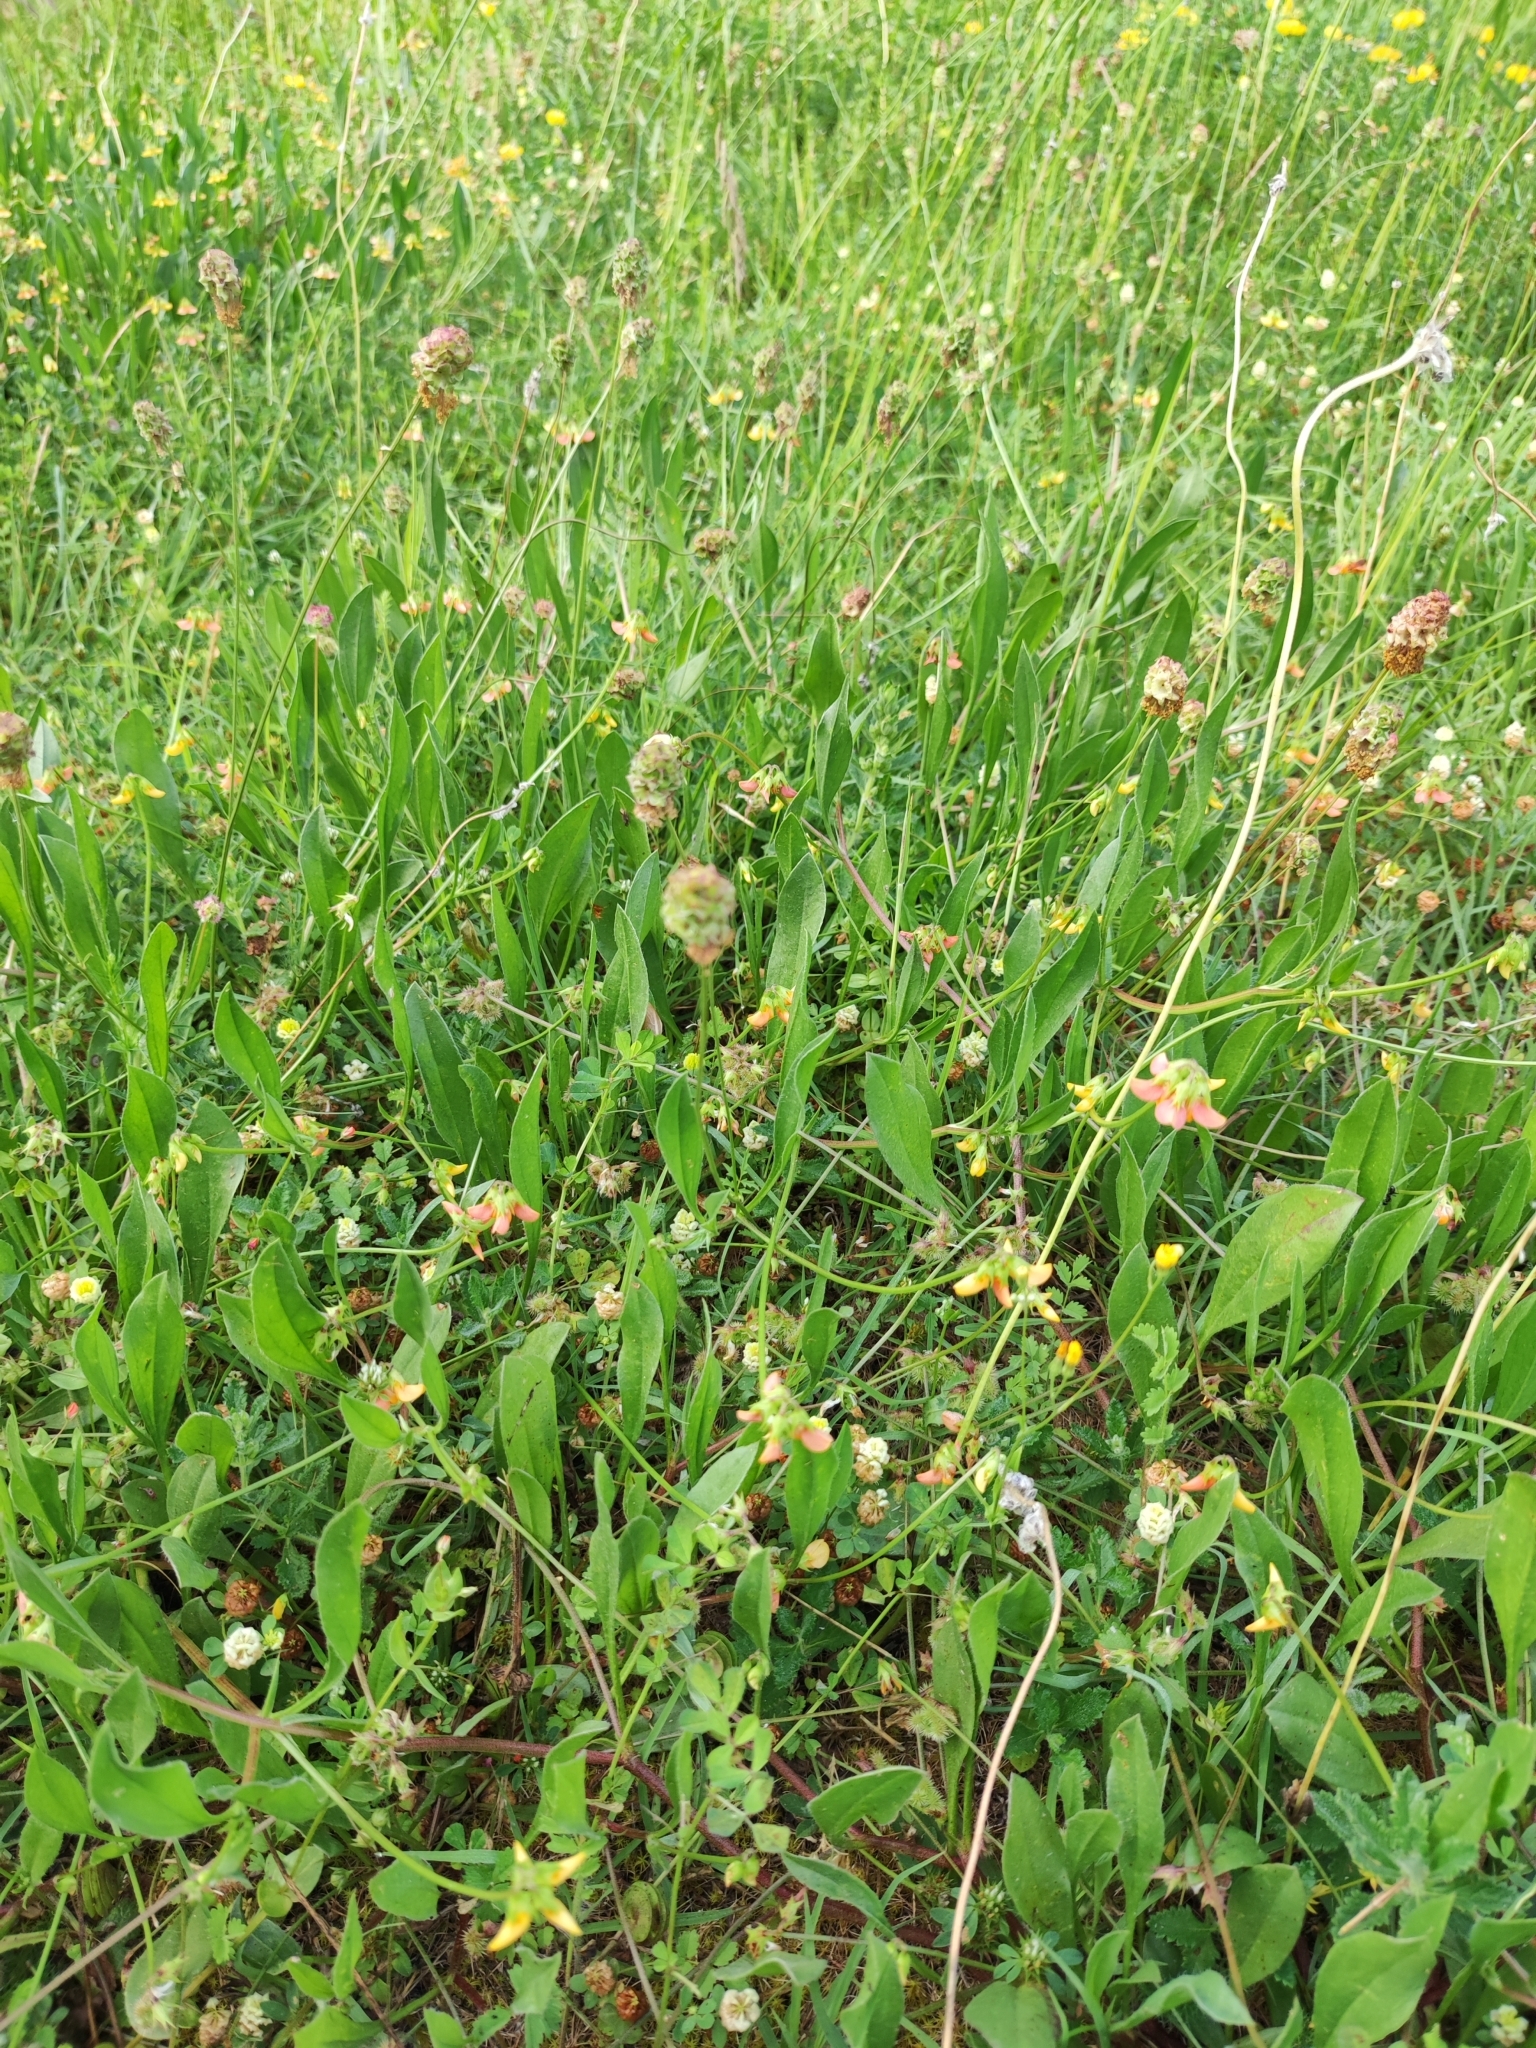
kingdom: Plantae
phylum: Tracheophyta
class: Magnoliopsida
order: Rosales
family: Rosaceae
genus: Poterium
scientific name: Poterium sanguisorba
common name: Salad burnet
